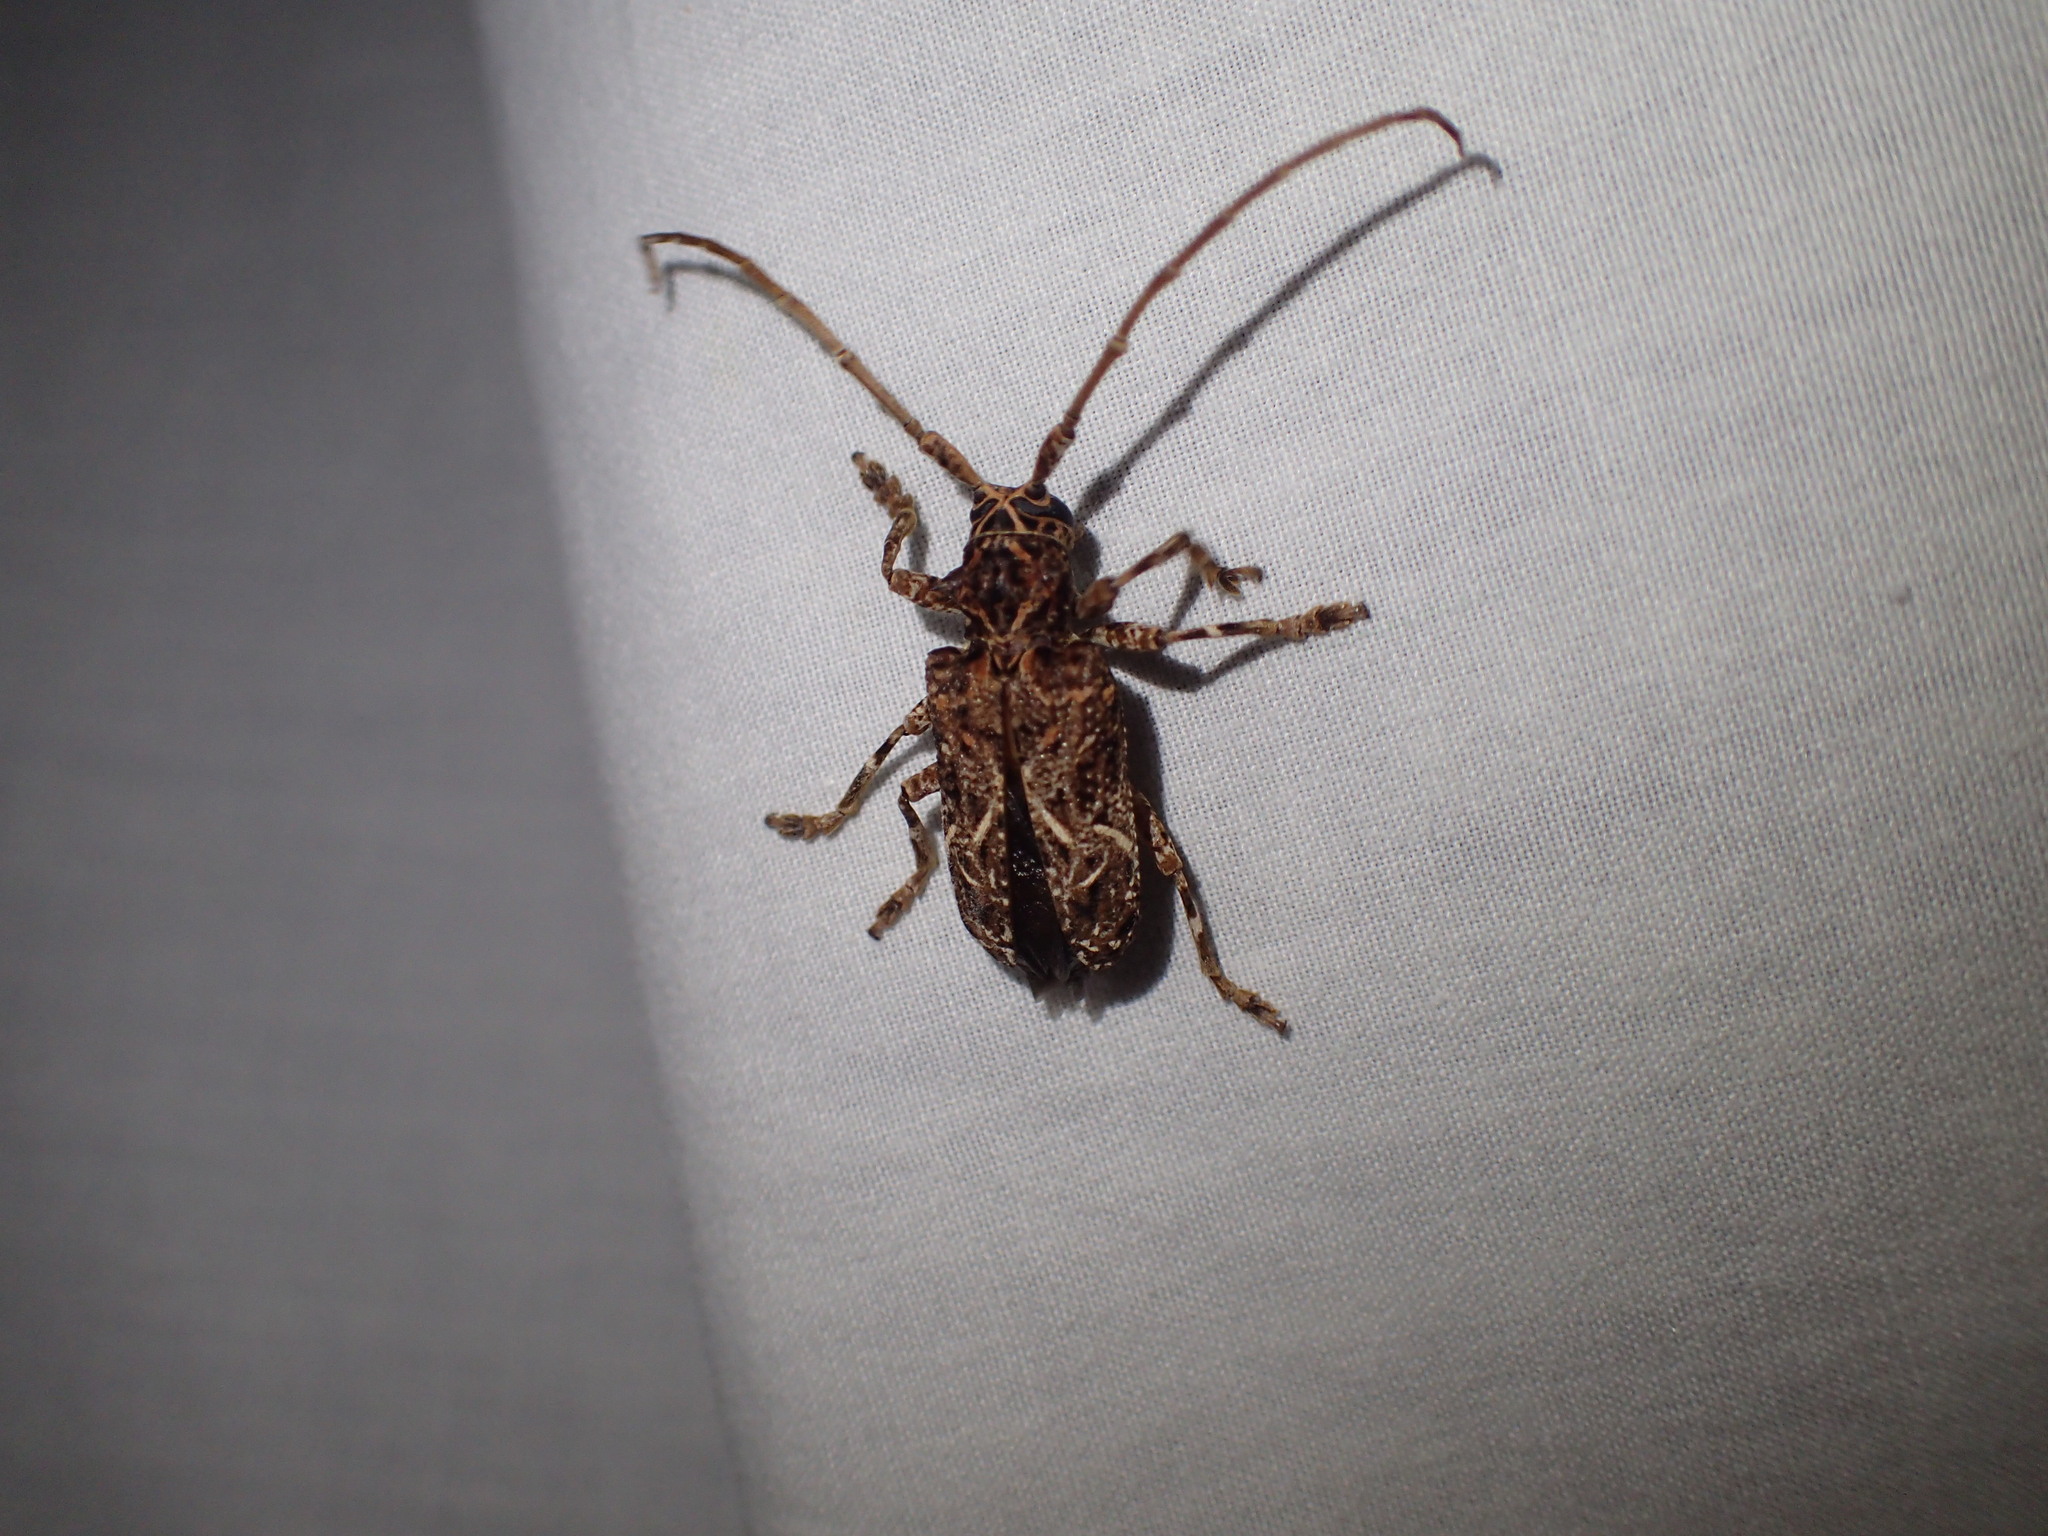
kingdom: Animalia
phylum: Arthropoda
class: Insecta
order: Coleoptera
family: Cerambycidae
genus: Phrynetopsis
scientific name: Phrynetopsis fuscicornis
